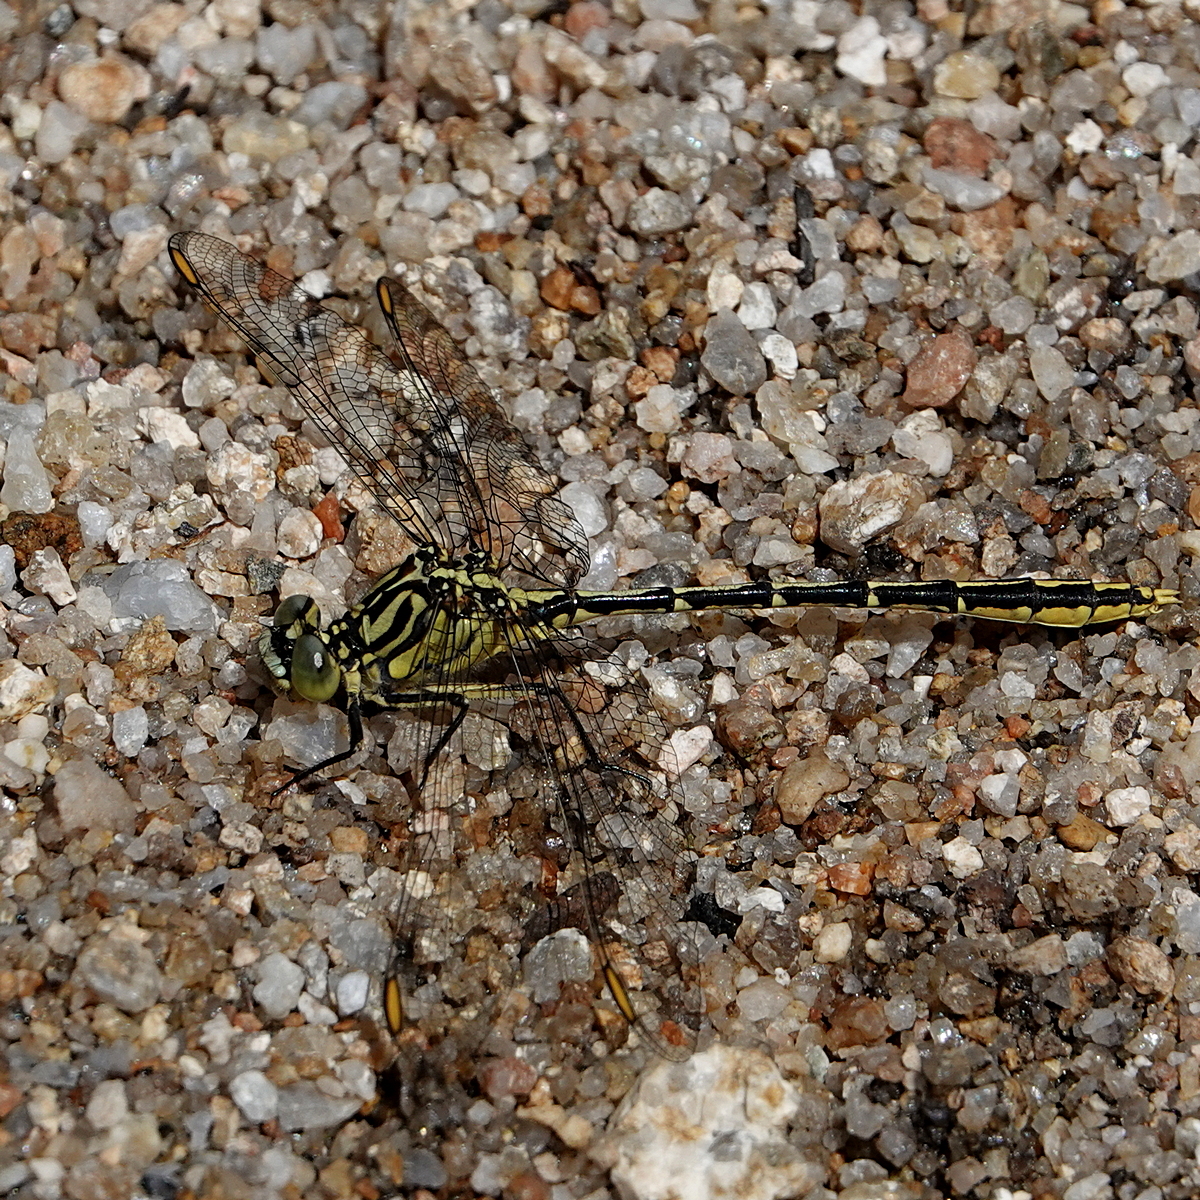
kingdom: Animalia
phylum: Arthropoda
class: Insecta
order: Odonata
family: Gomphidae
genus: Austrogomphus
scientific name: Austrogomphus guerini
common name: Yellow-striped hunter
